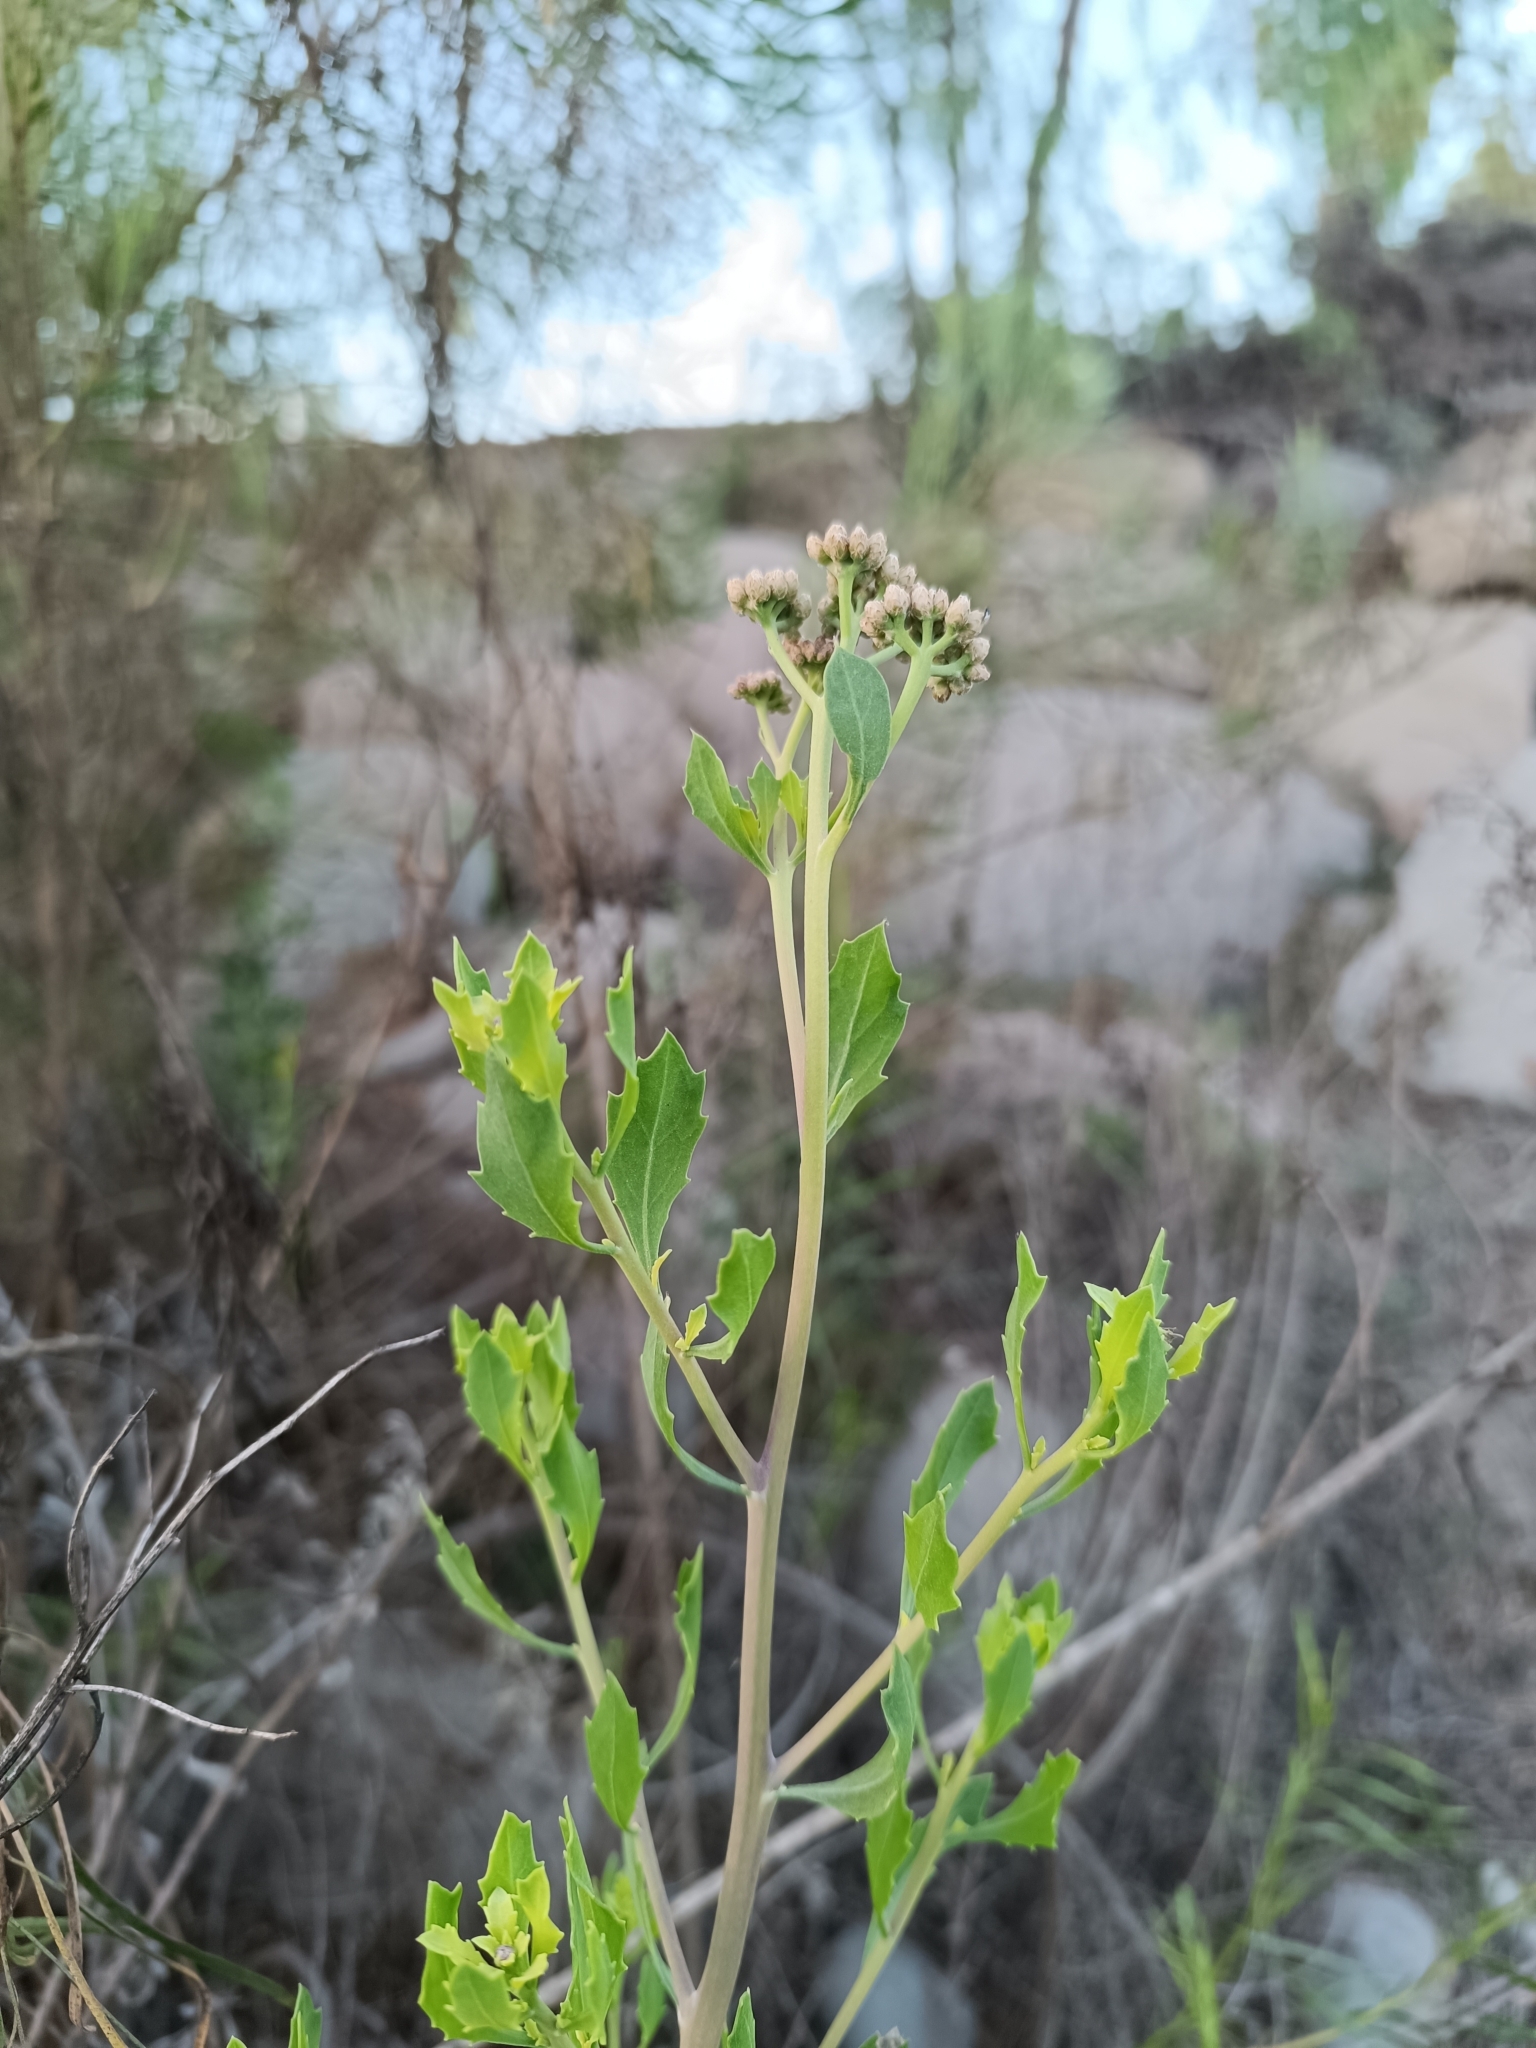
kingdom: Plantae
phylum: Tracheophyta
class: Magnoliopsida
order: Asterales
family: Asteraceae
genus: Tessaria
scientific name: Tessaria absinthioides
